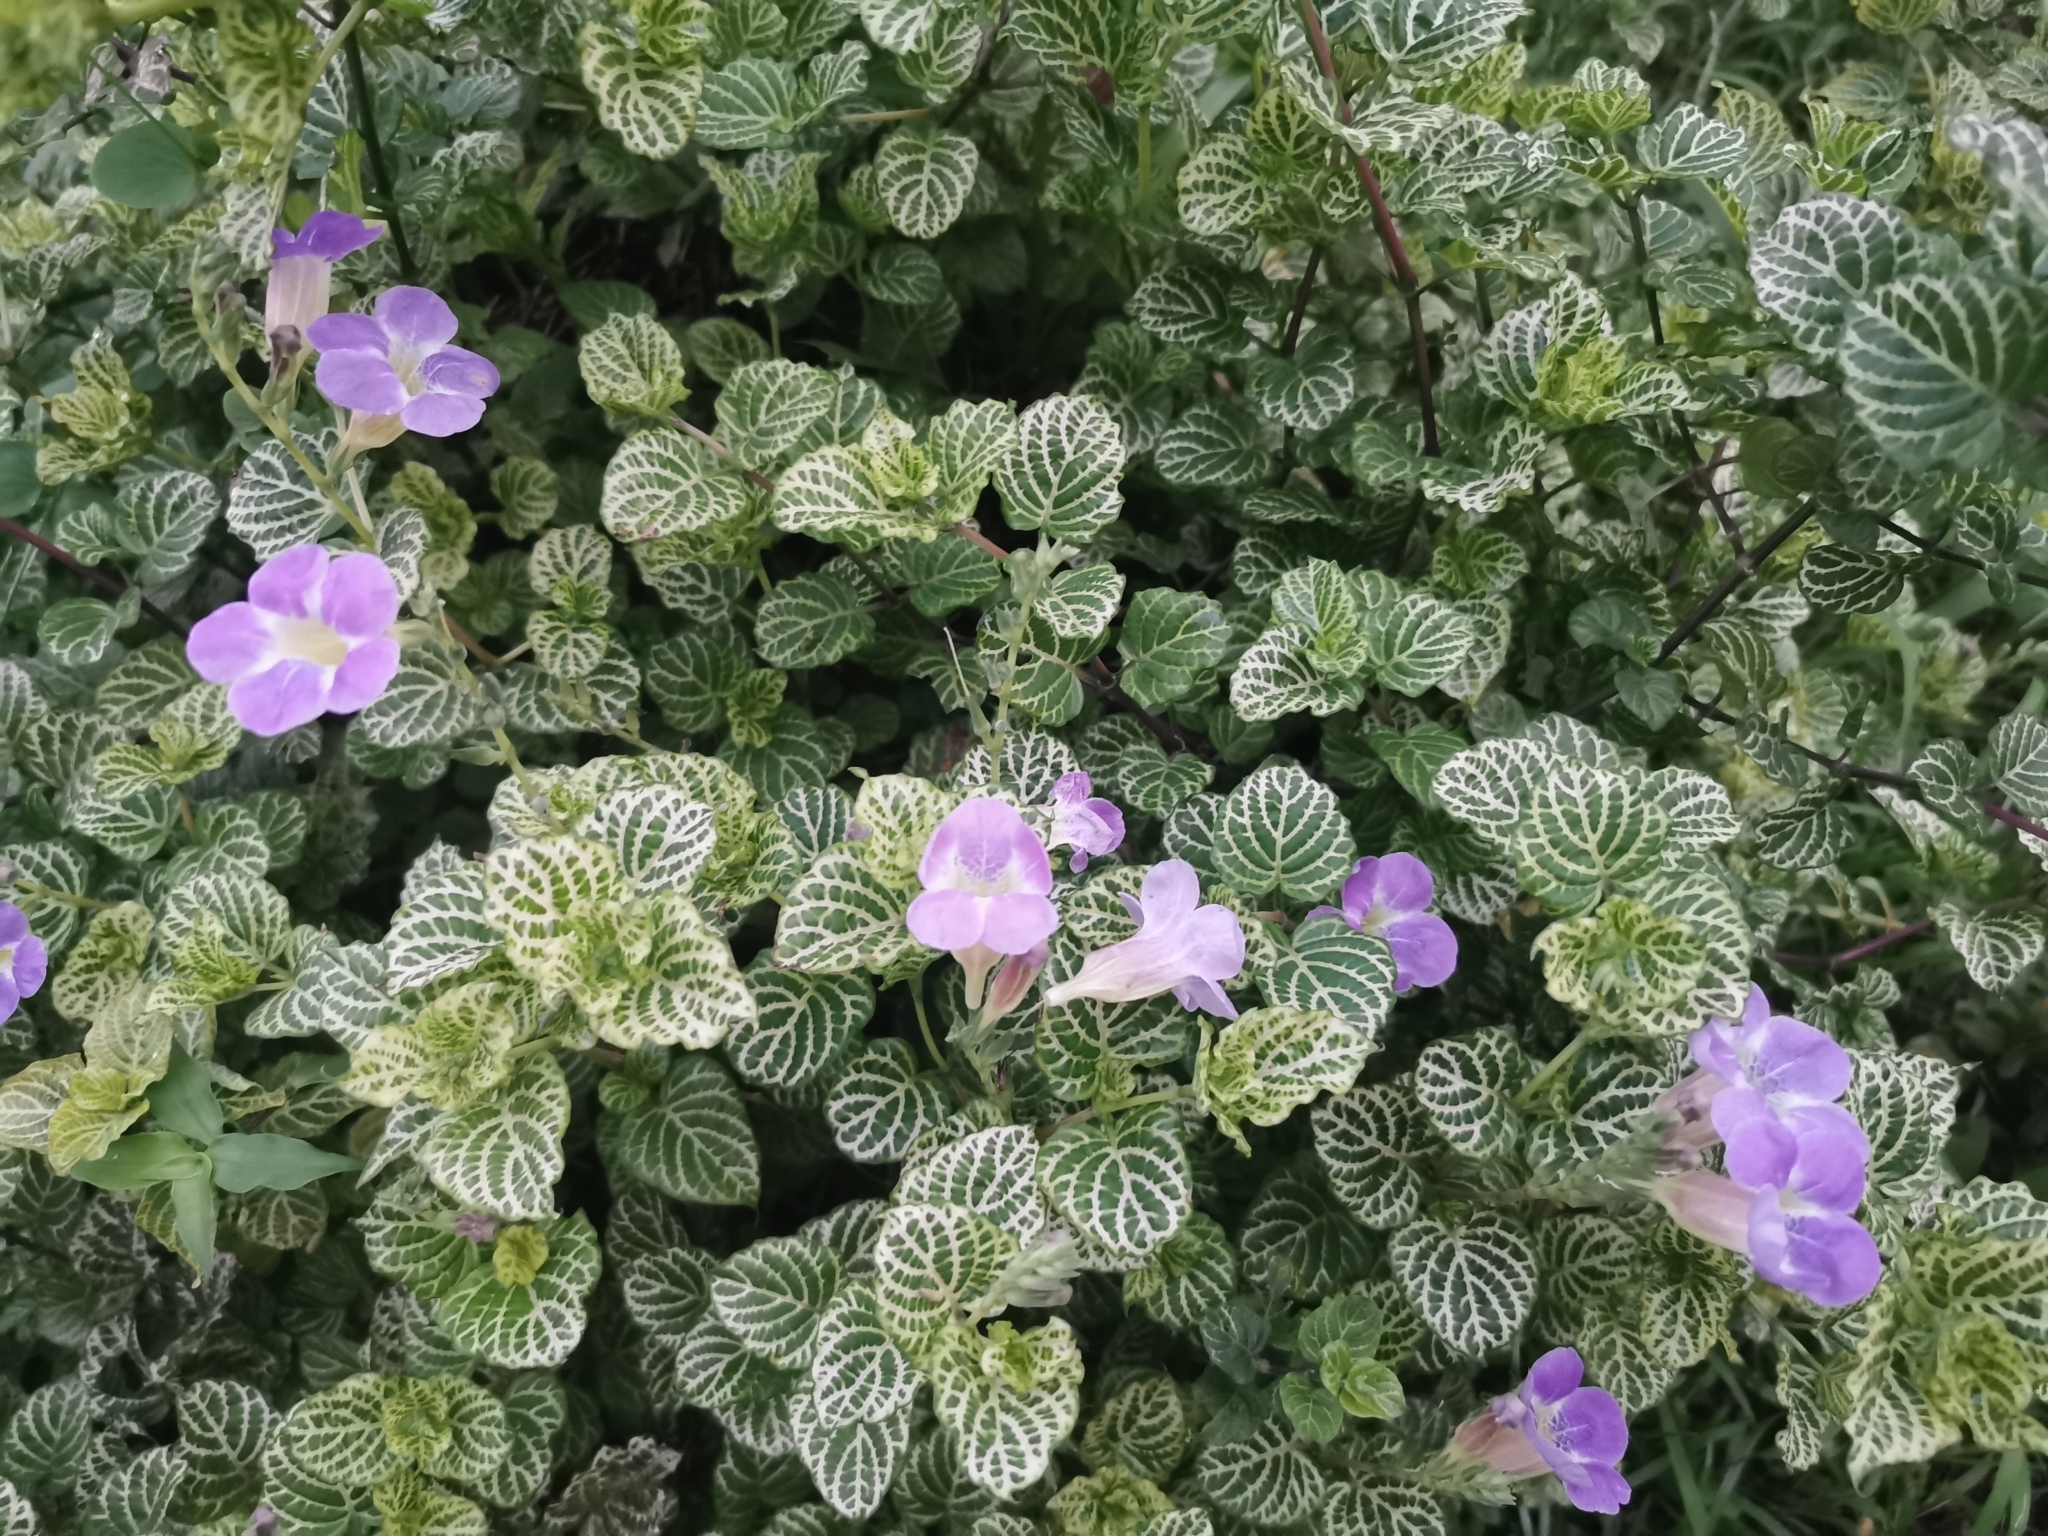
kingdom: Plantae
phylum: Tracheophyta
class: Magnoliopsida
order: Lamiales
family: Acanthaceae
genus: Asystasia
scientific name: Asystasia gangetica
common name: Chinese violet
